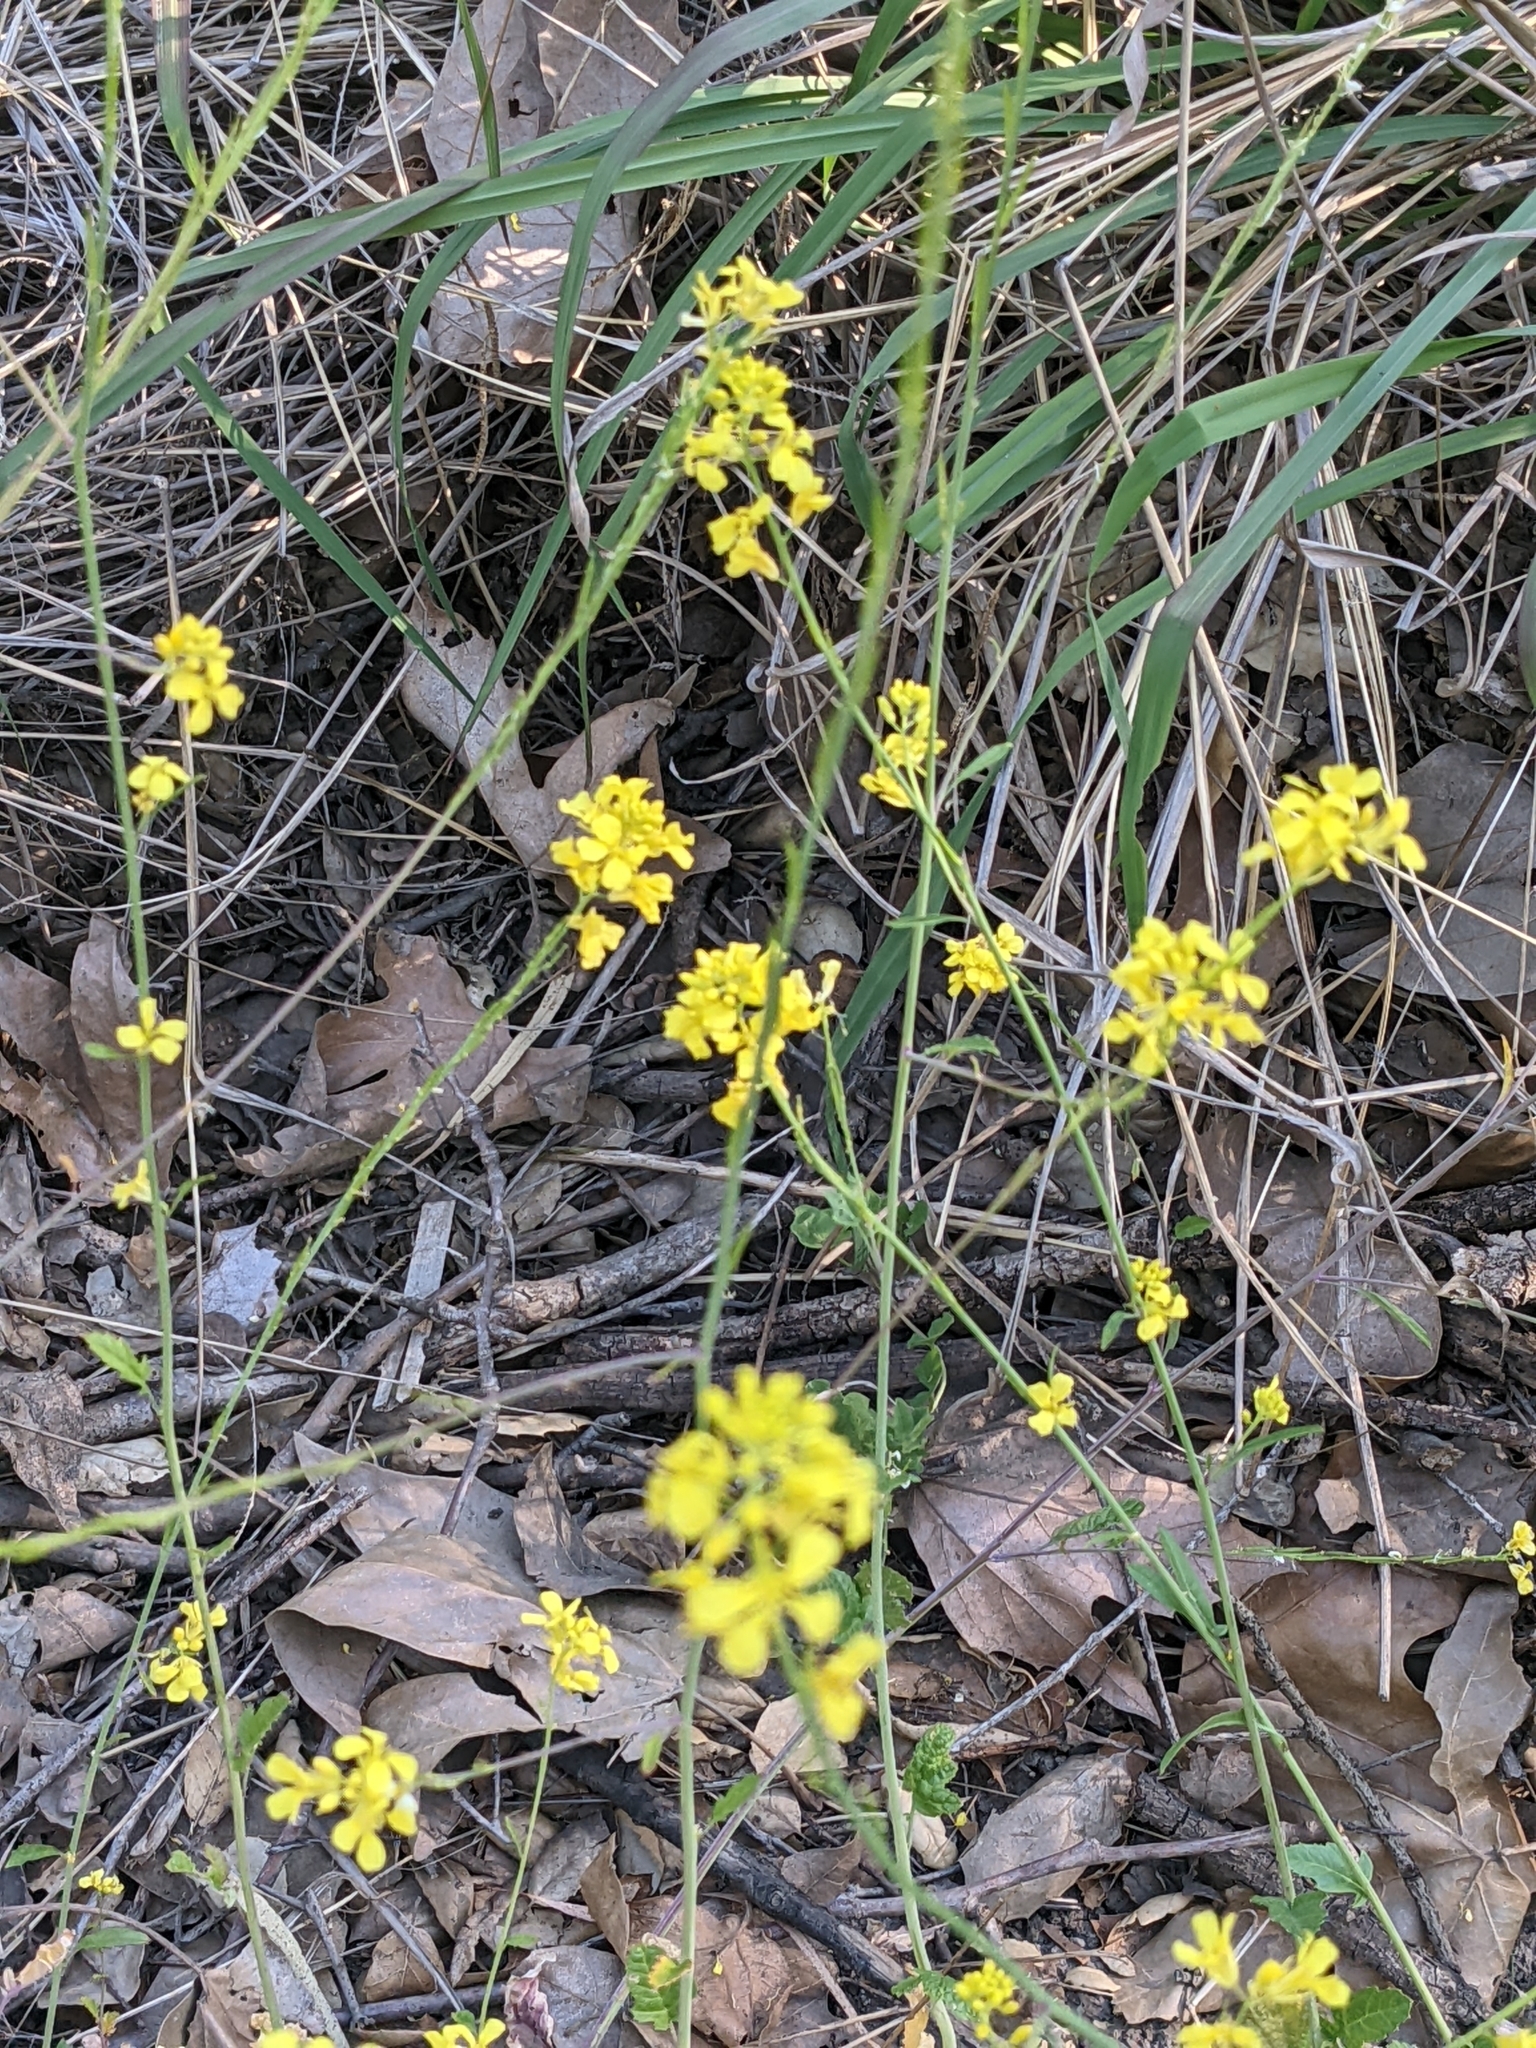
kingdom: Plantae
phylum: Tracheophyta
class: Magnoliopsida
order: Brassicales
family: Brassicaceae
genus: Hirschfeldia
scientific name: Hirschfeldia incana
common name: Hoary mustard
